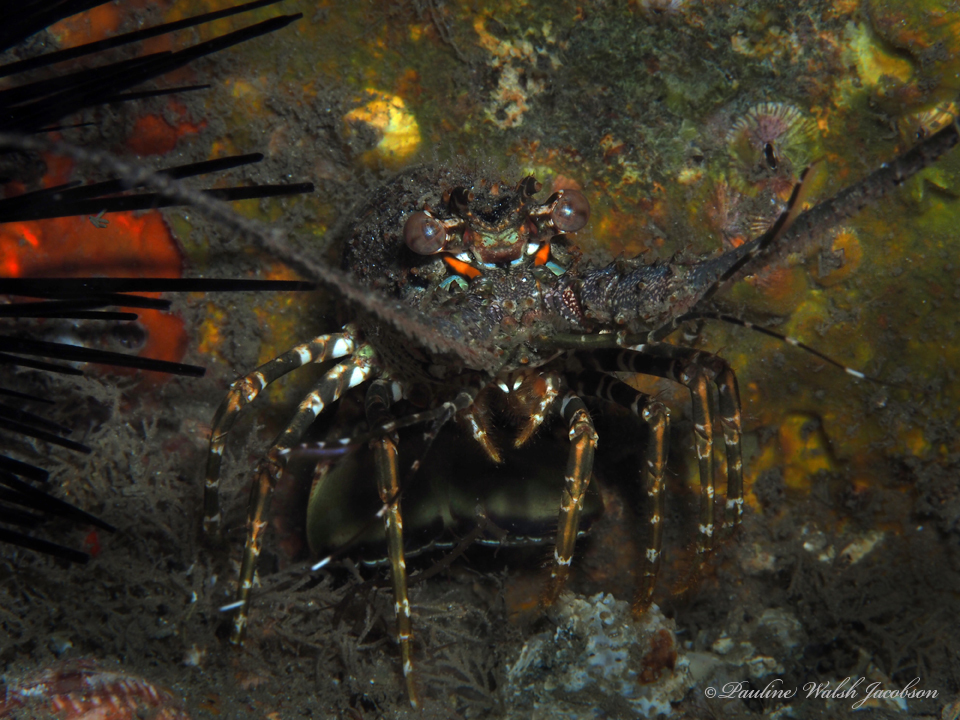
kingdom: Animalia
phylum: Arthropoda
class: Malacostraca
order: Decapoda
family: Palinuridae
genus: Panulirus
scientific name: Panulirus argus
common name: Caribbean spiny lobster
